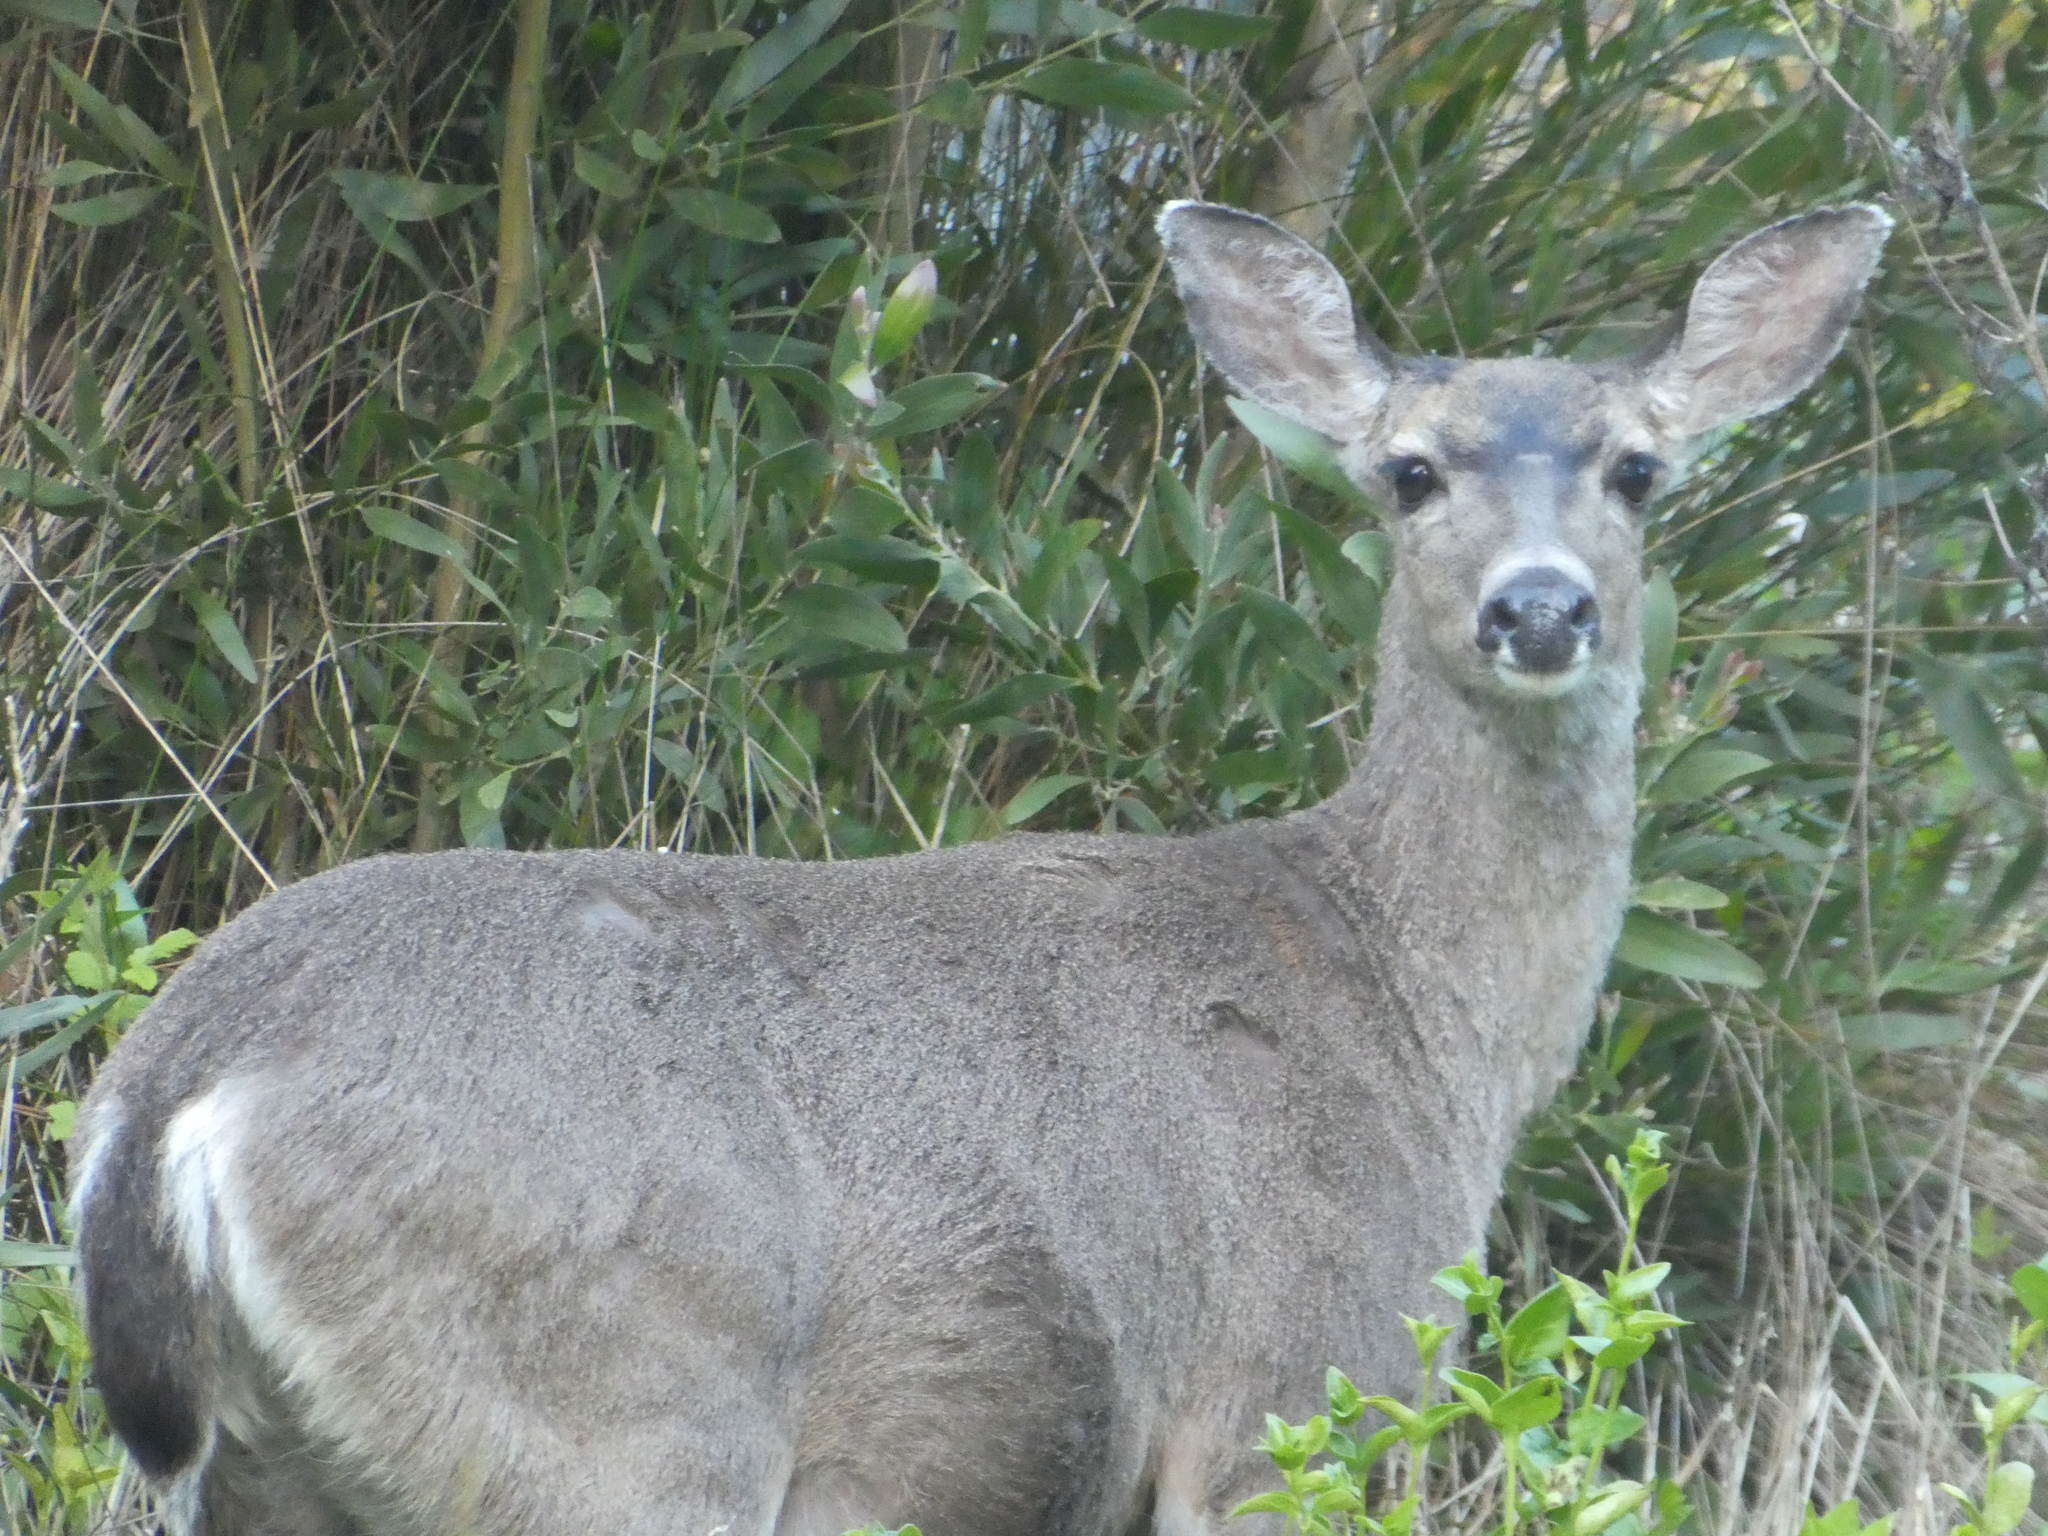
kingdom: Animalia
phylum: Chordata
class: Mammalia
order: Artiodactyla
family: Cervidae
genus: Odocoileus
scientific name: Odocoileus hemionus
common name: Mule deer
